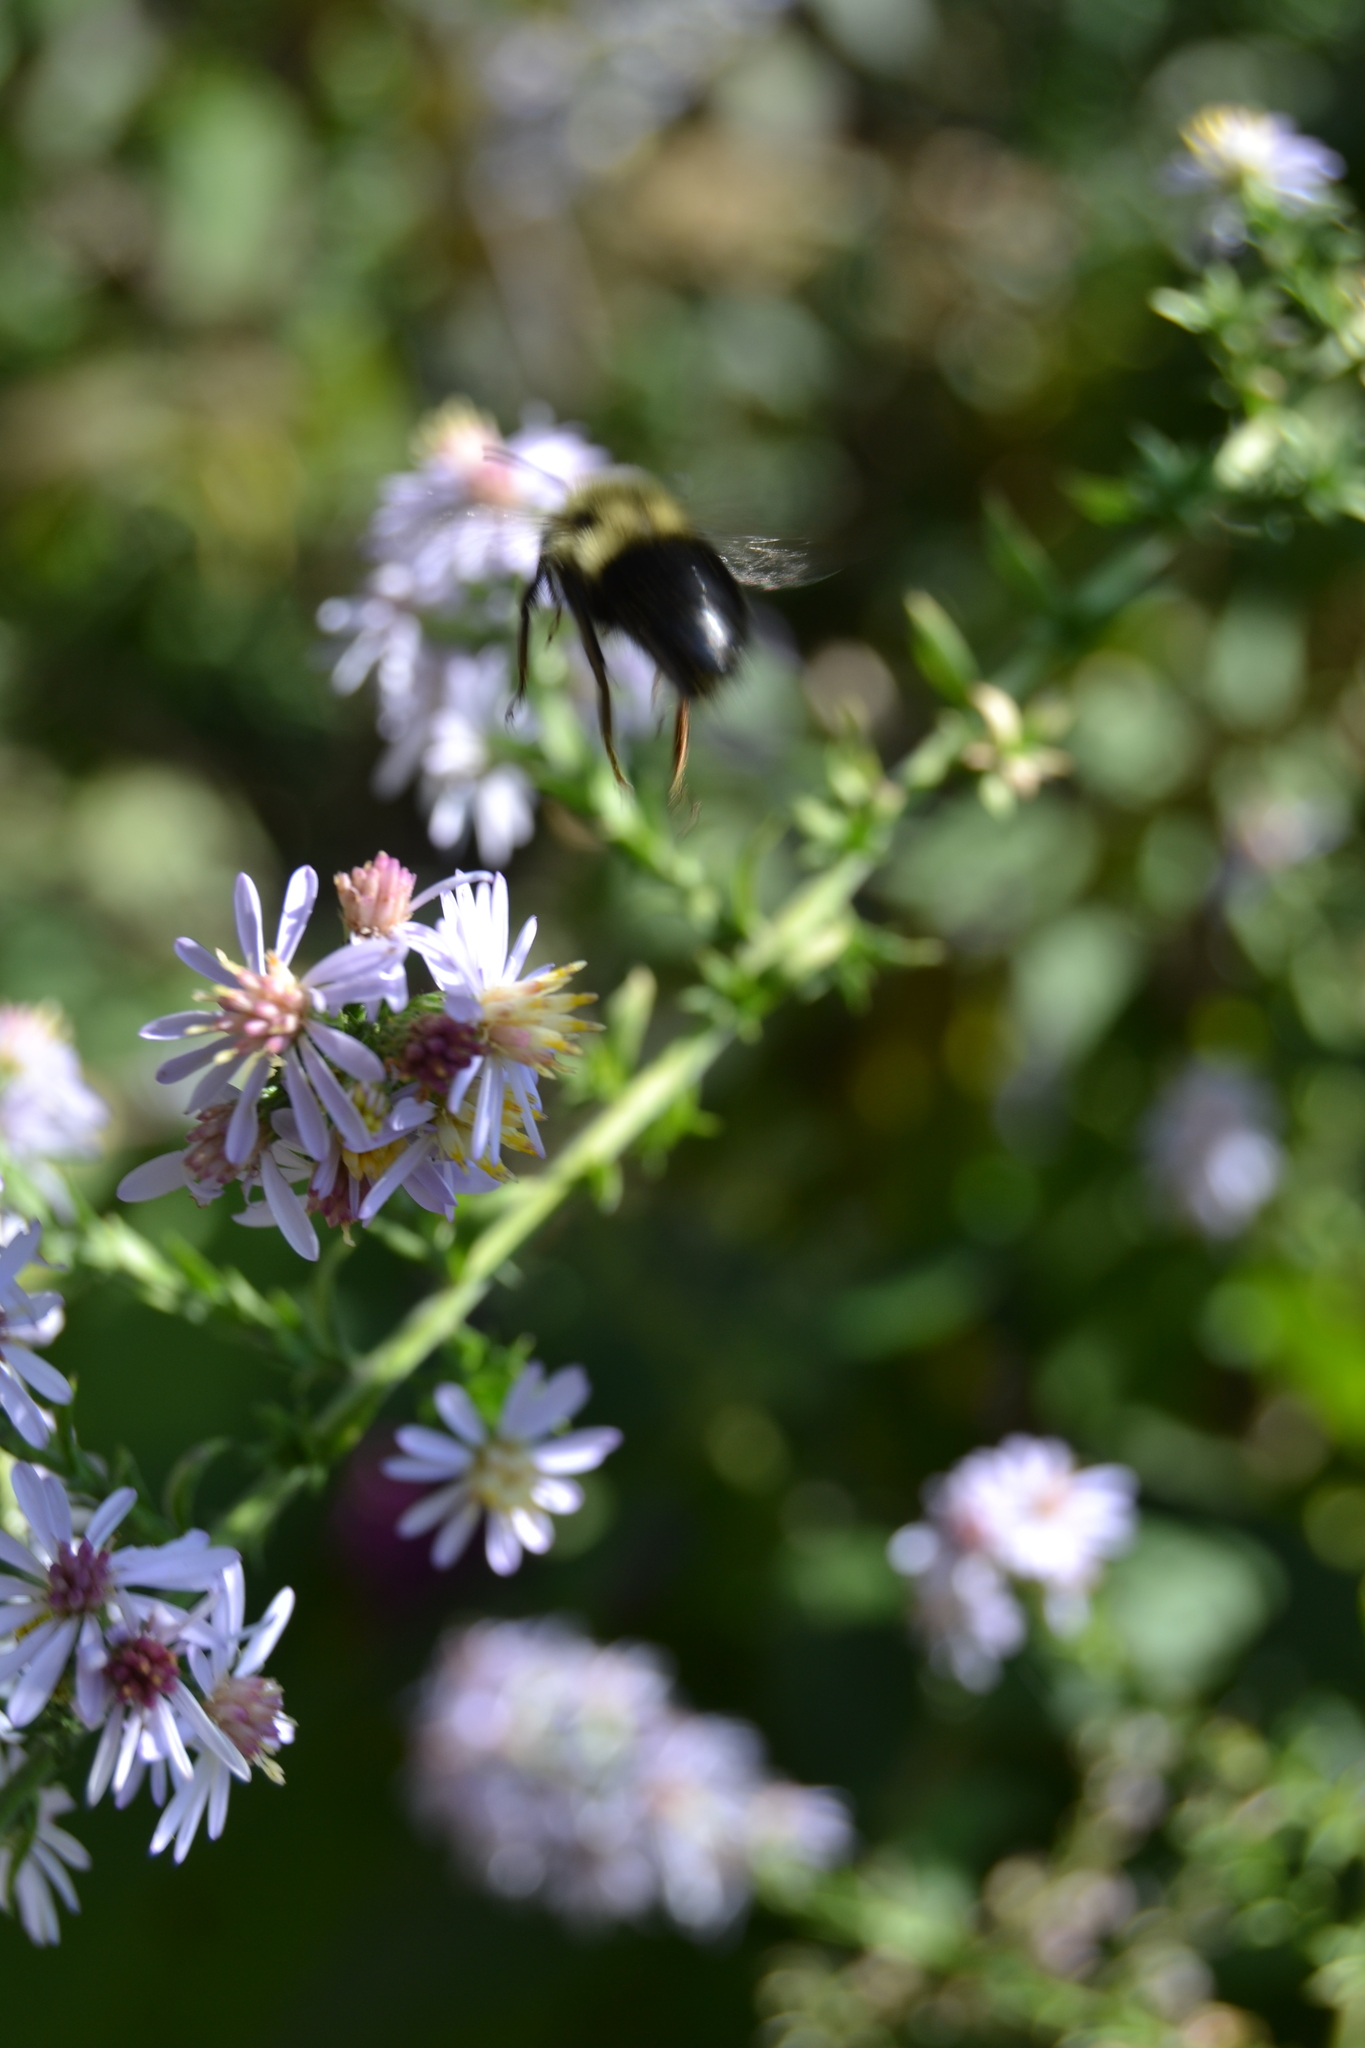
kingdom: Animalia
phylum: Arthropoda
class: Insecta
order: Hymenoptera
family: Apidae
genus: Bombus
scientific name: Bombus impatiens
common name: Common eastern bumble bee
